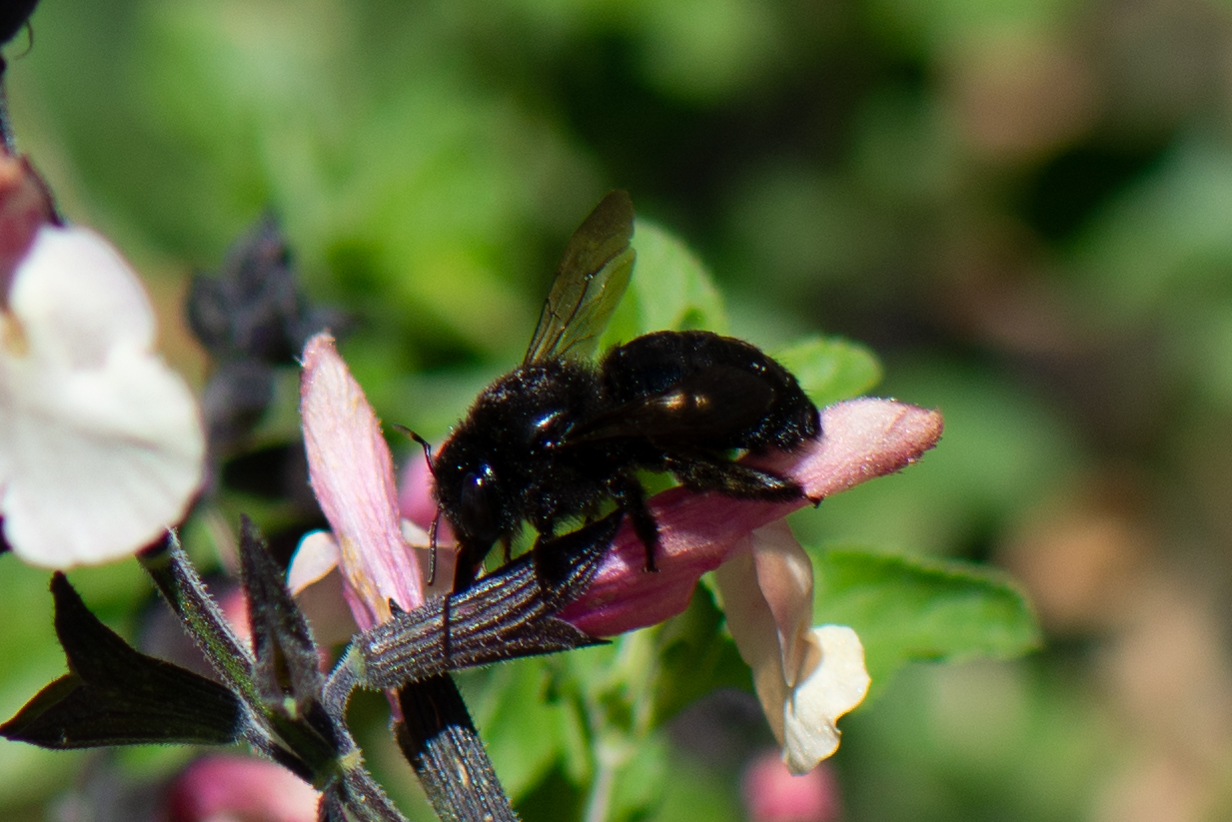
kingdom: Animalia
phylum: Arthropoda
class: Insecta
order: Hymenoptera
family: Apidae
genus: Xylocopa
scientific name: Xylocopa tabaniformis
